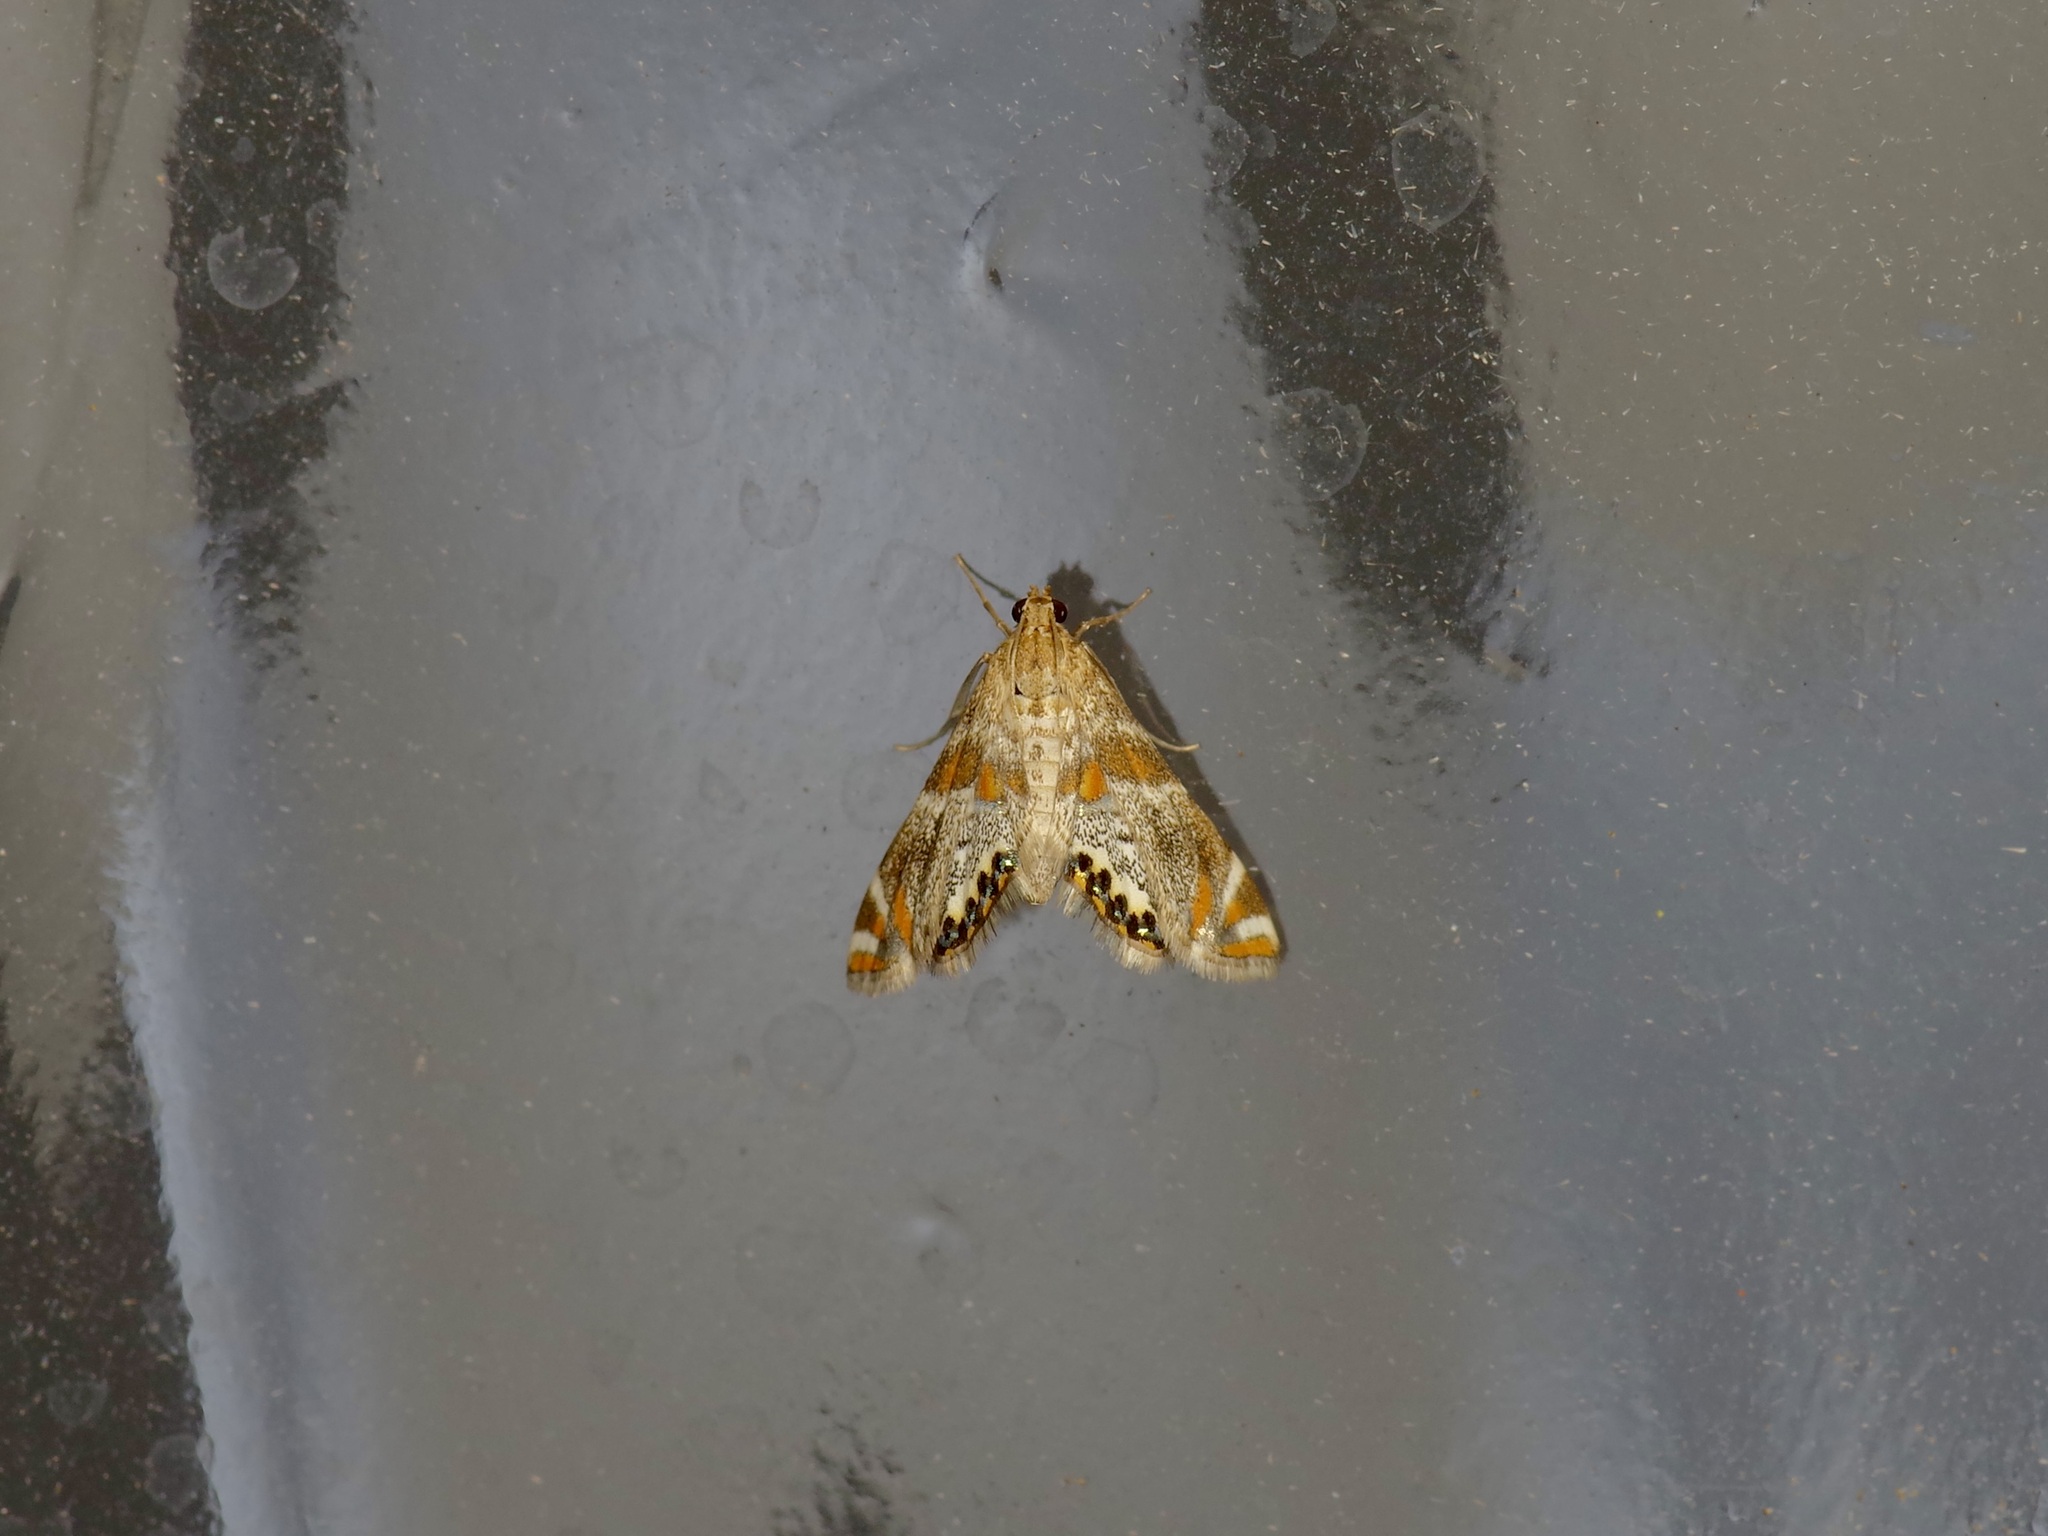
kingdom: Animalia
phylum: Arthropoda
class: Insecta
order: Lepidoptera
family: Crambidae
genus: Petrophila
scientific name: Petrophila jaliscalis
